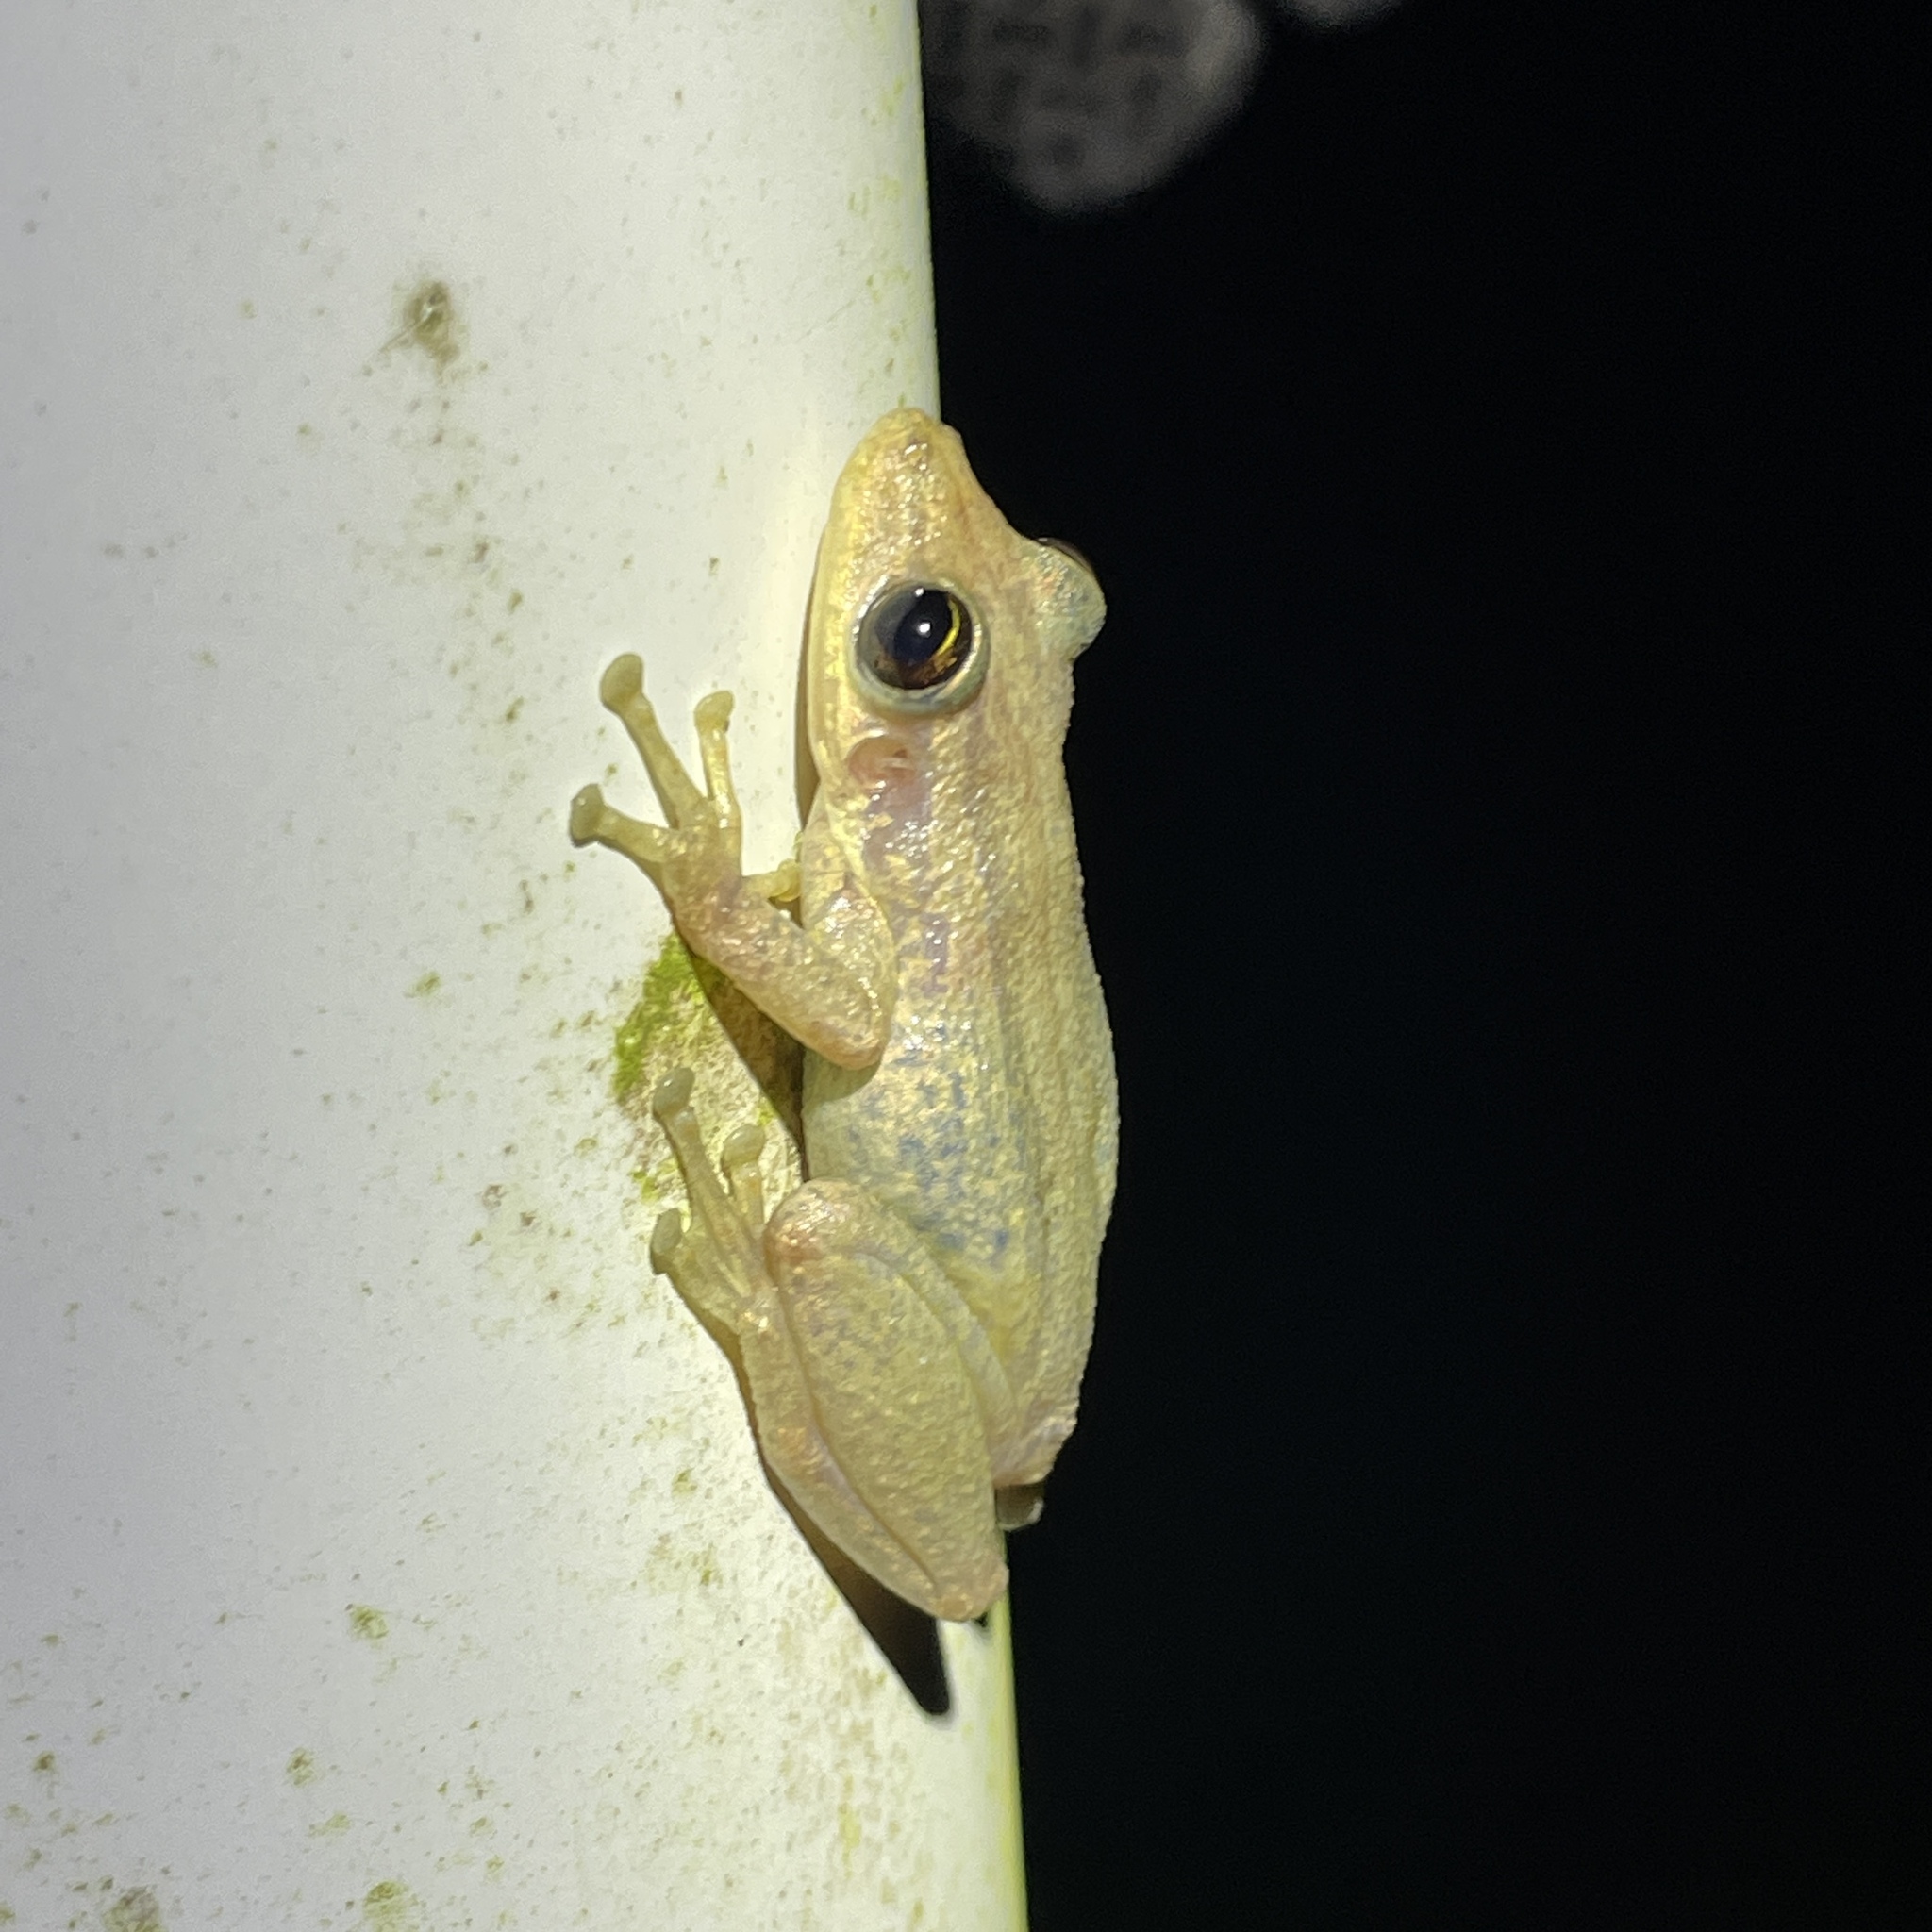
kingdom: Animalia
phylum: Chordata
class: Amphibia
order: Anura
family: Hylidae
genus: Scinax
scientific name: Scinax ruber
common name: Red snouted treefrog
